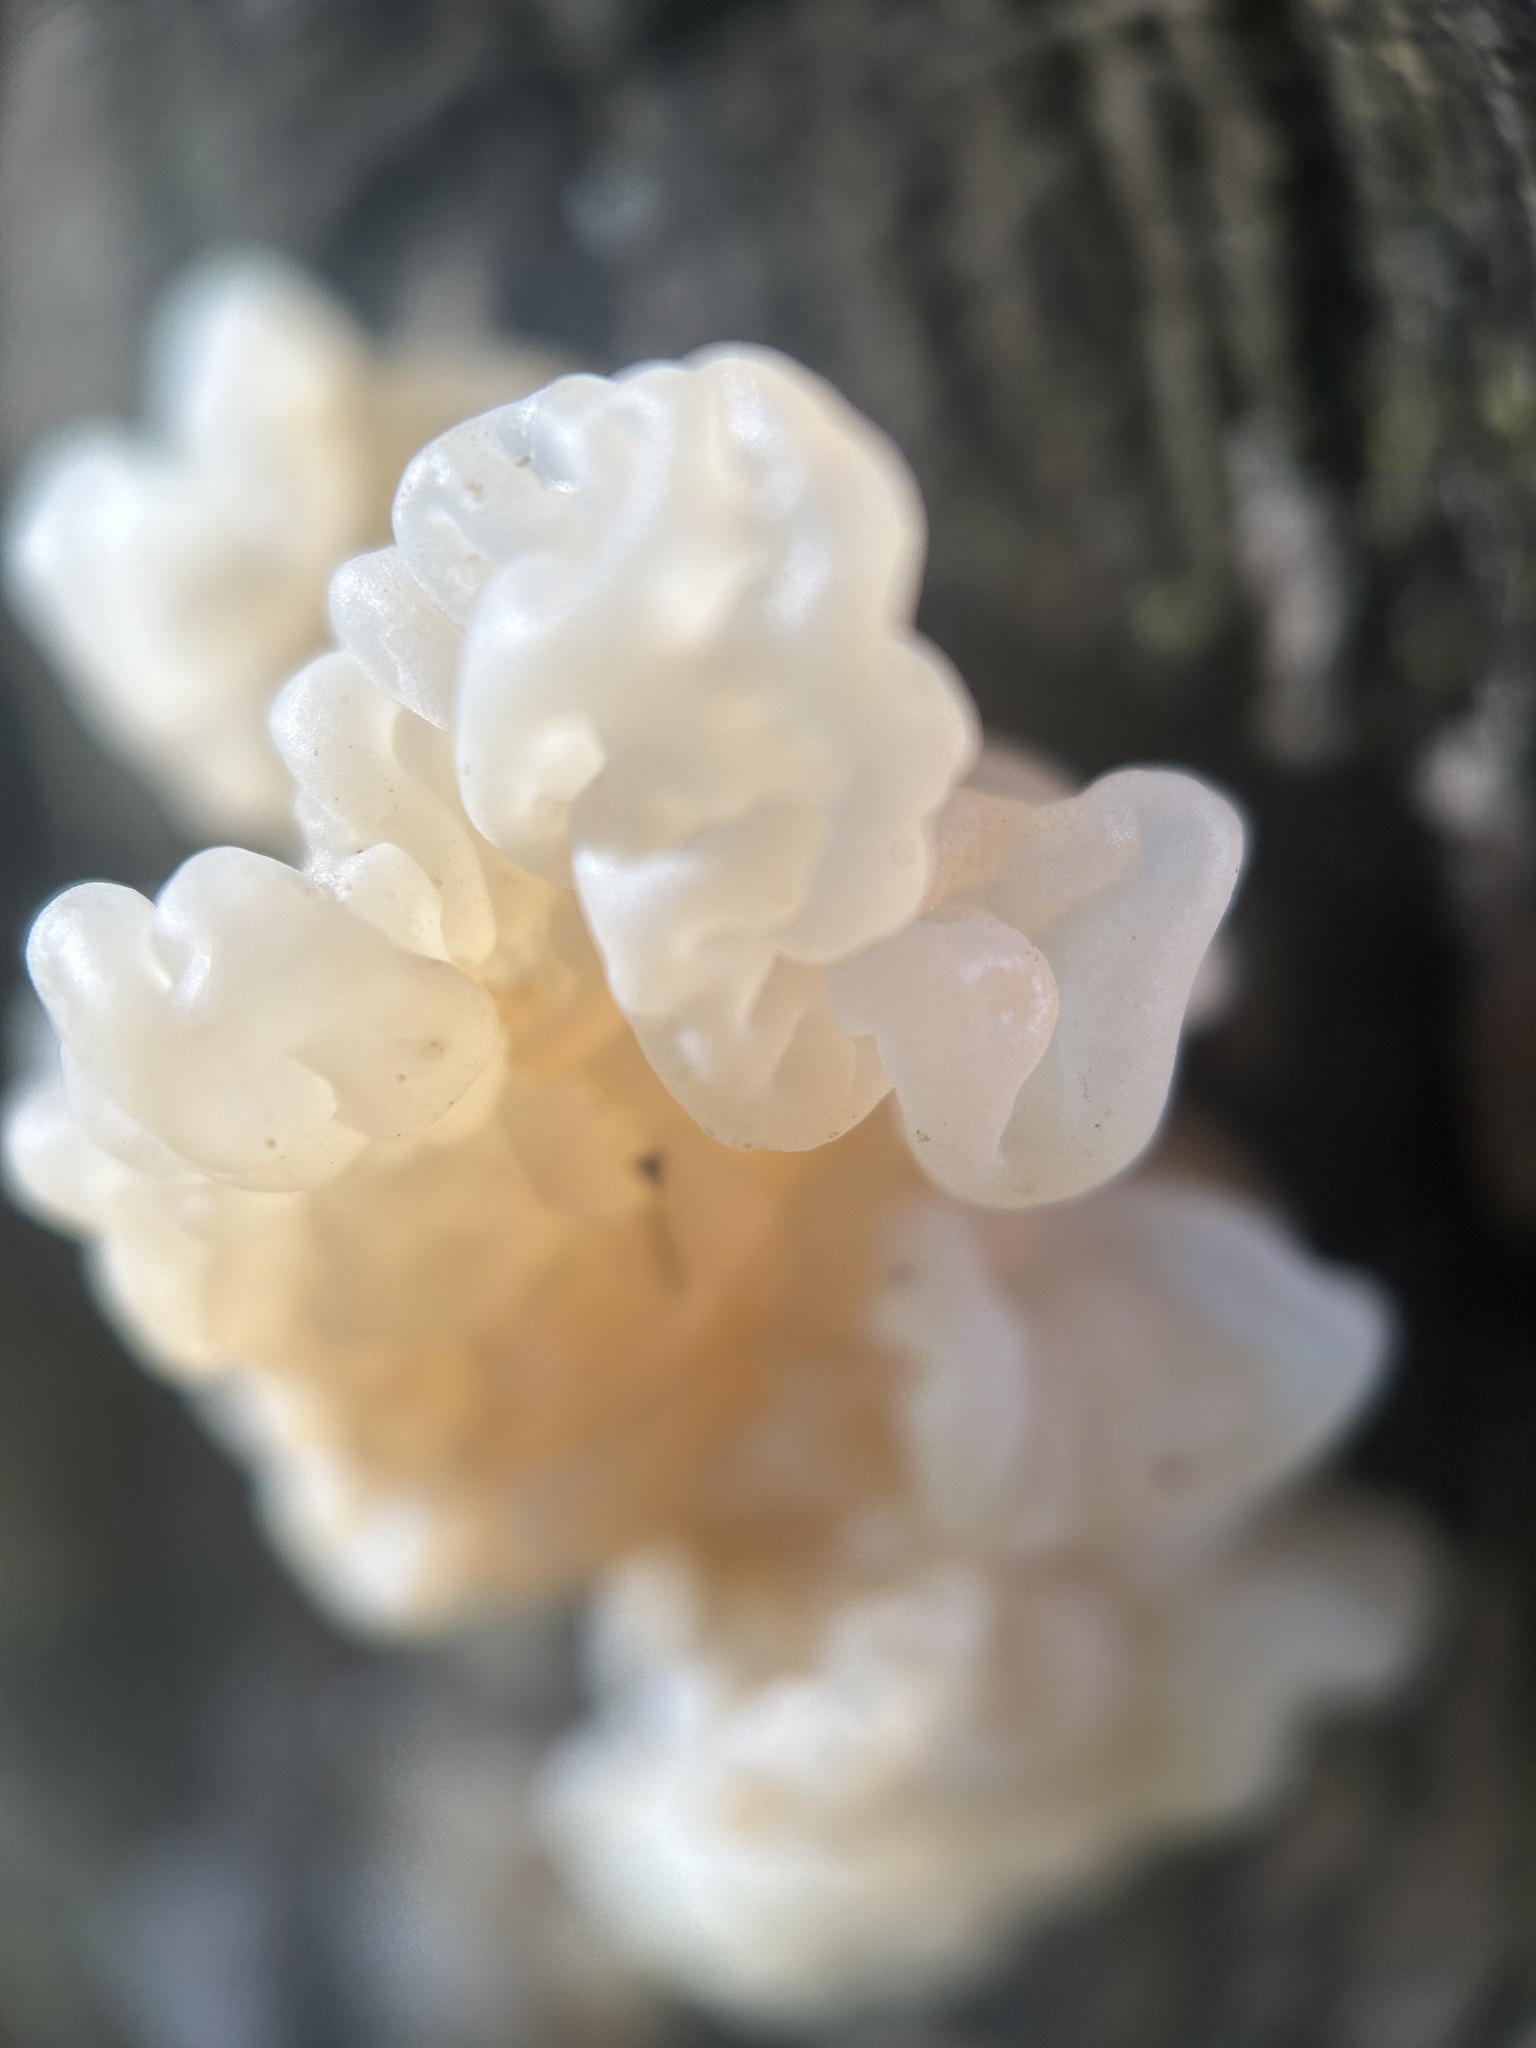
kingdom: Fungi
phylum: Basidiomycota
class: Agaricomycetes
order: Auriculariales
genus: Ductifera
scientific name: Ductifera pululahuana
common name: White jelly fungus
